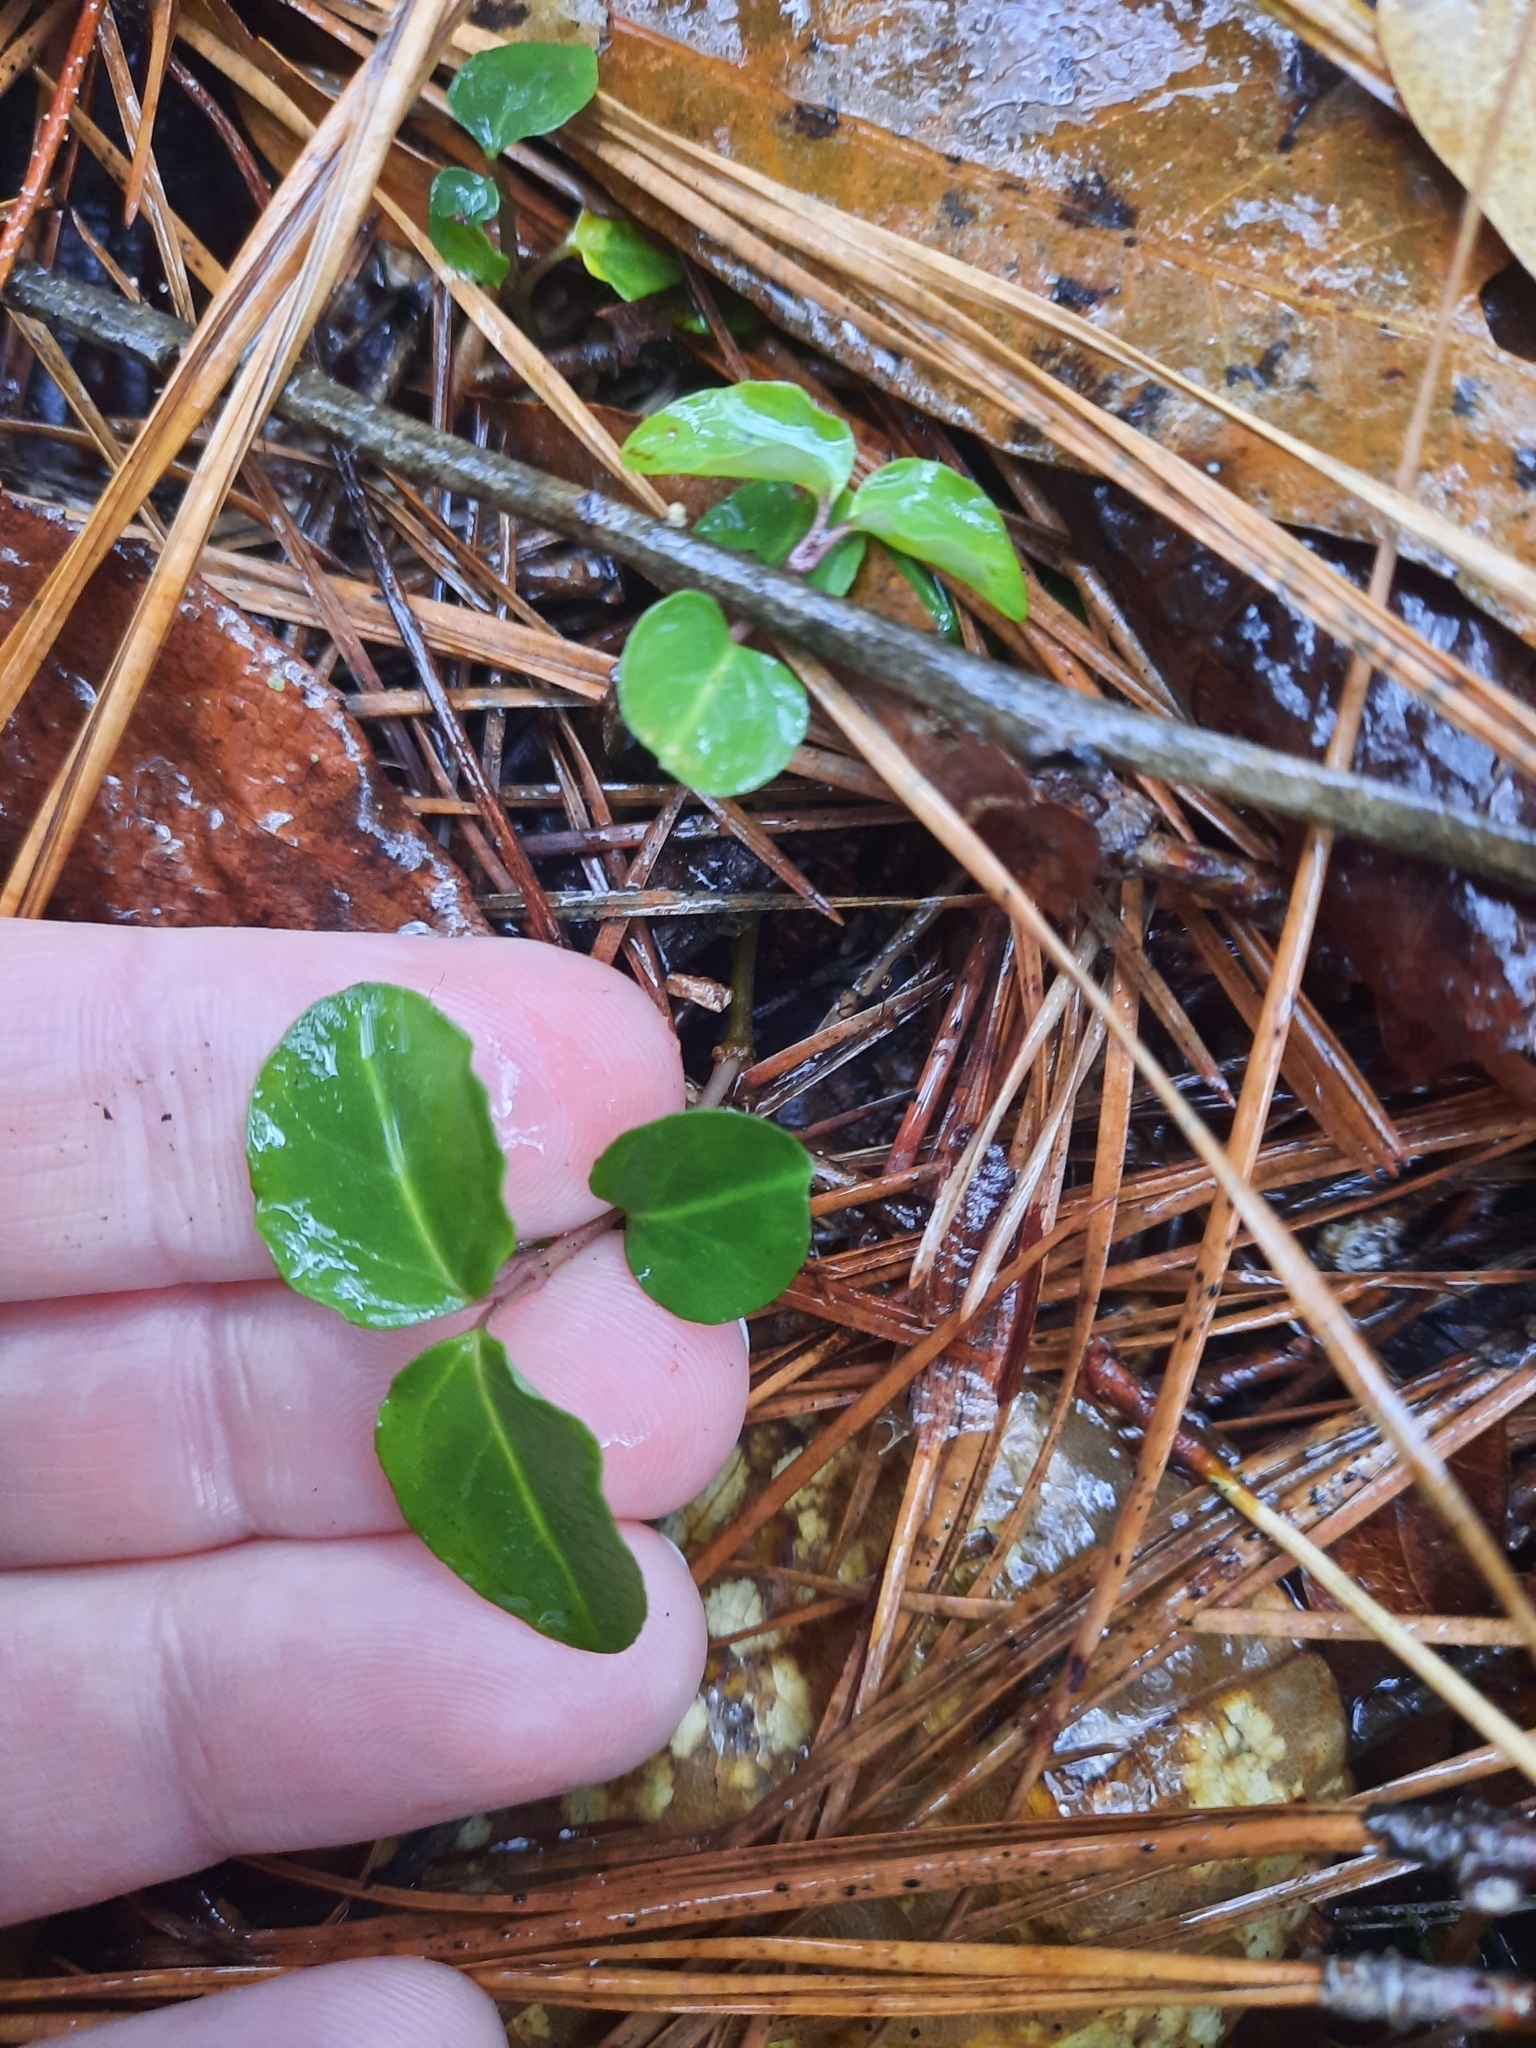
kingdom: Plantae
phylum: Tracheophyta
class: Magnoliopsida
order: Gentianales
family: Rubiaceae
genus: Mitchella
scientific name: Mitchella repens
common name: Partridge-berry
